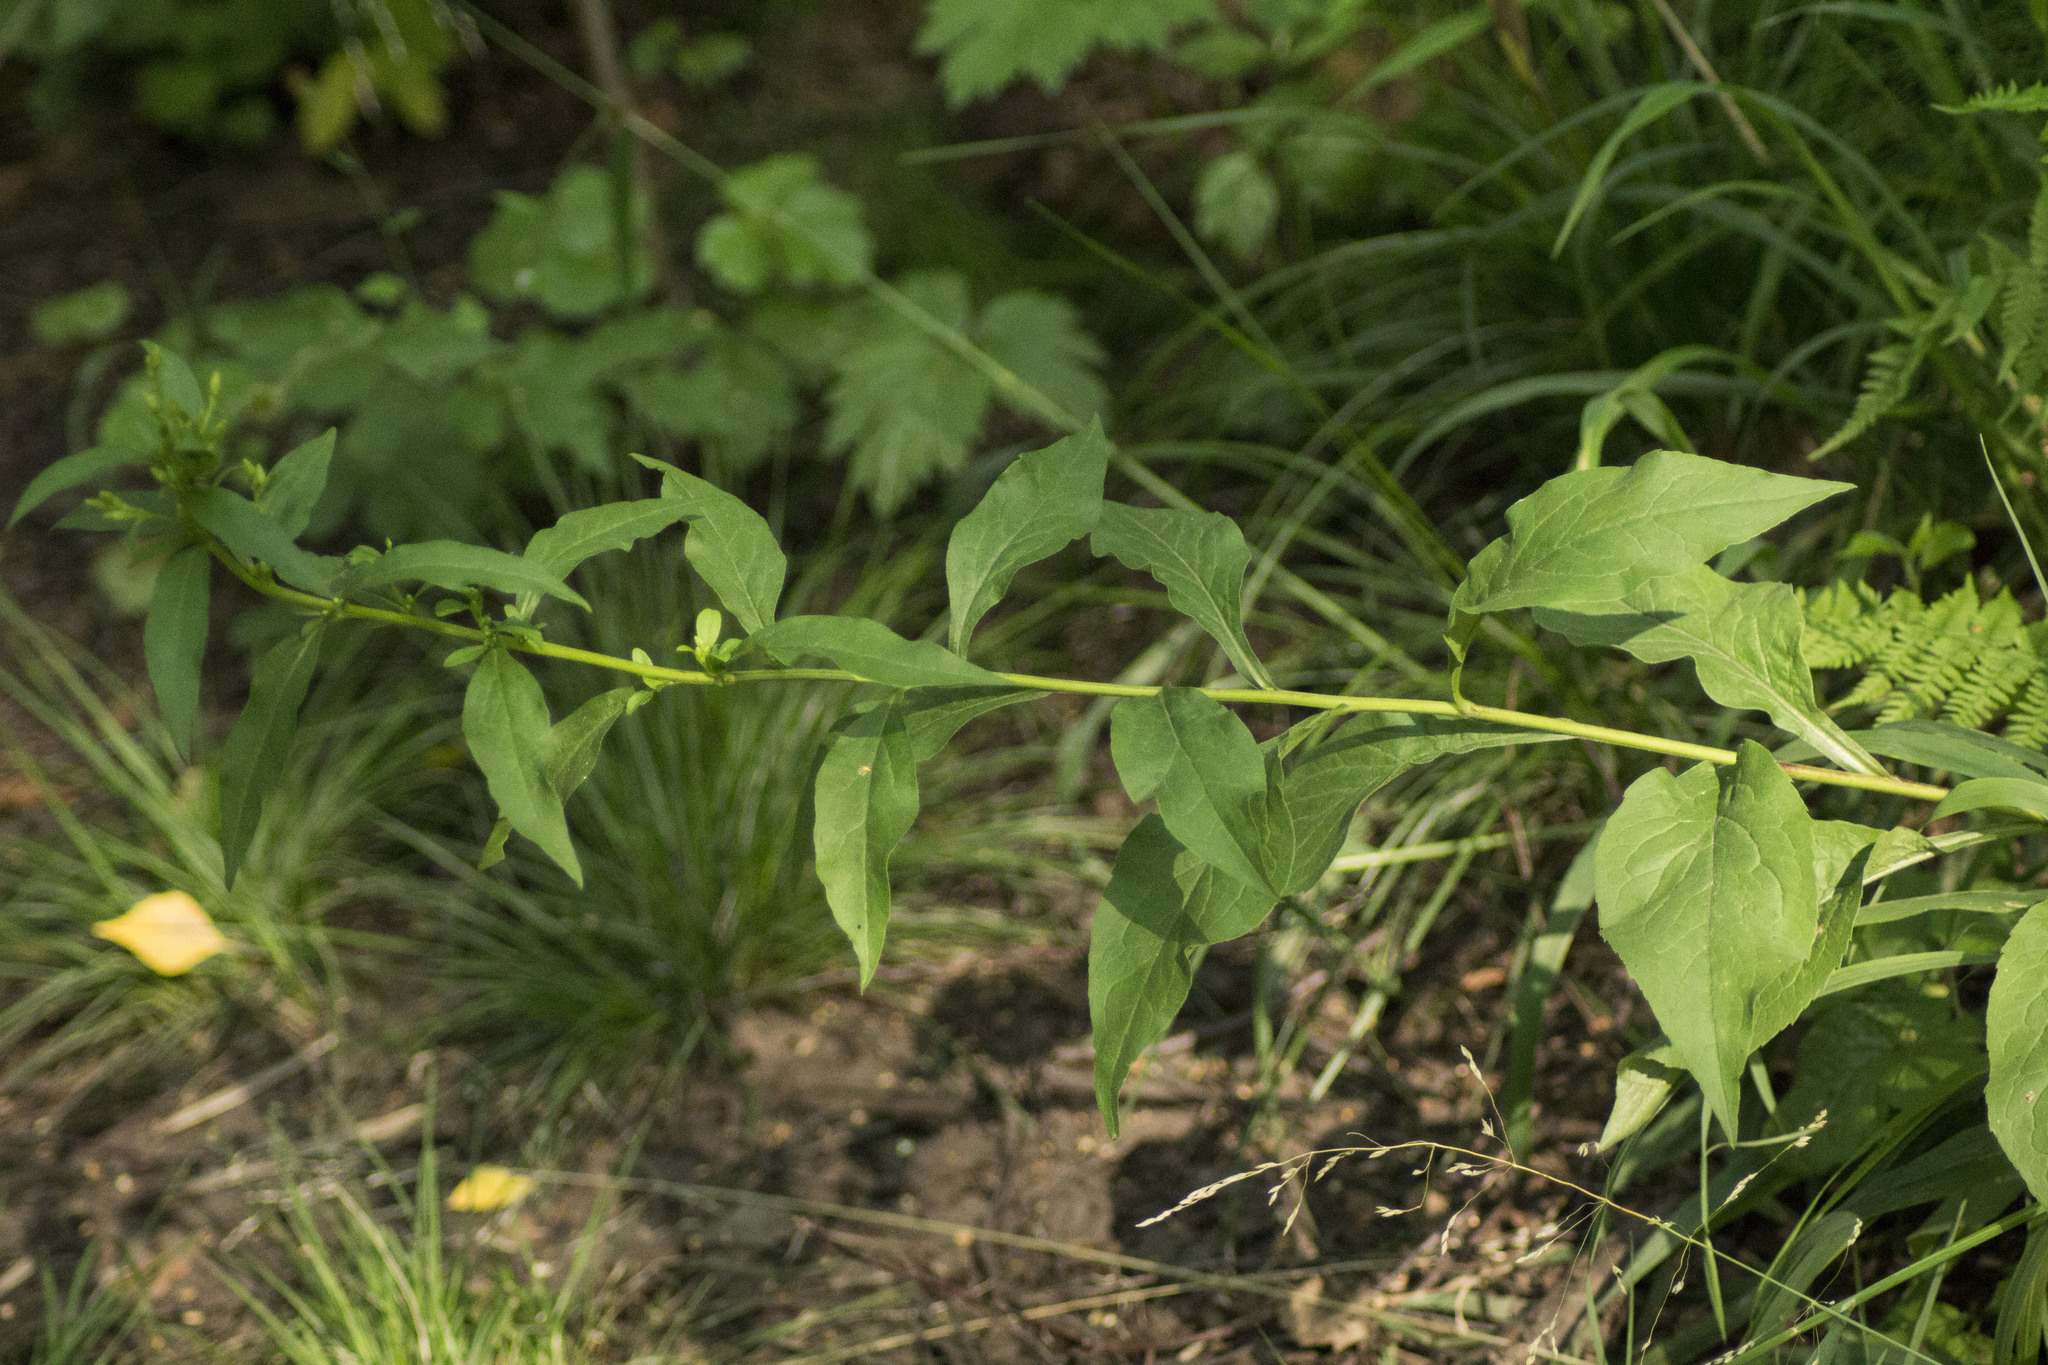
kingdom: Plantae
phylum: Tracheophyta
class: Magnoliopsida
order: Asterales
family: Asteraceae
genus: Solidago
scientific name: Solidago virgaurea
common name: Goldenrod
